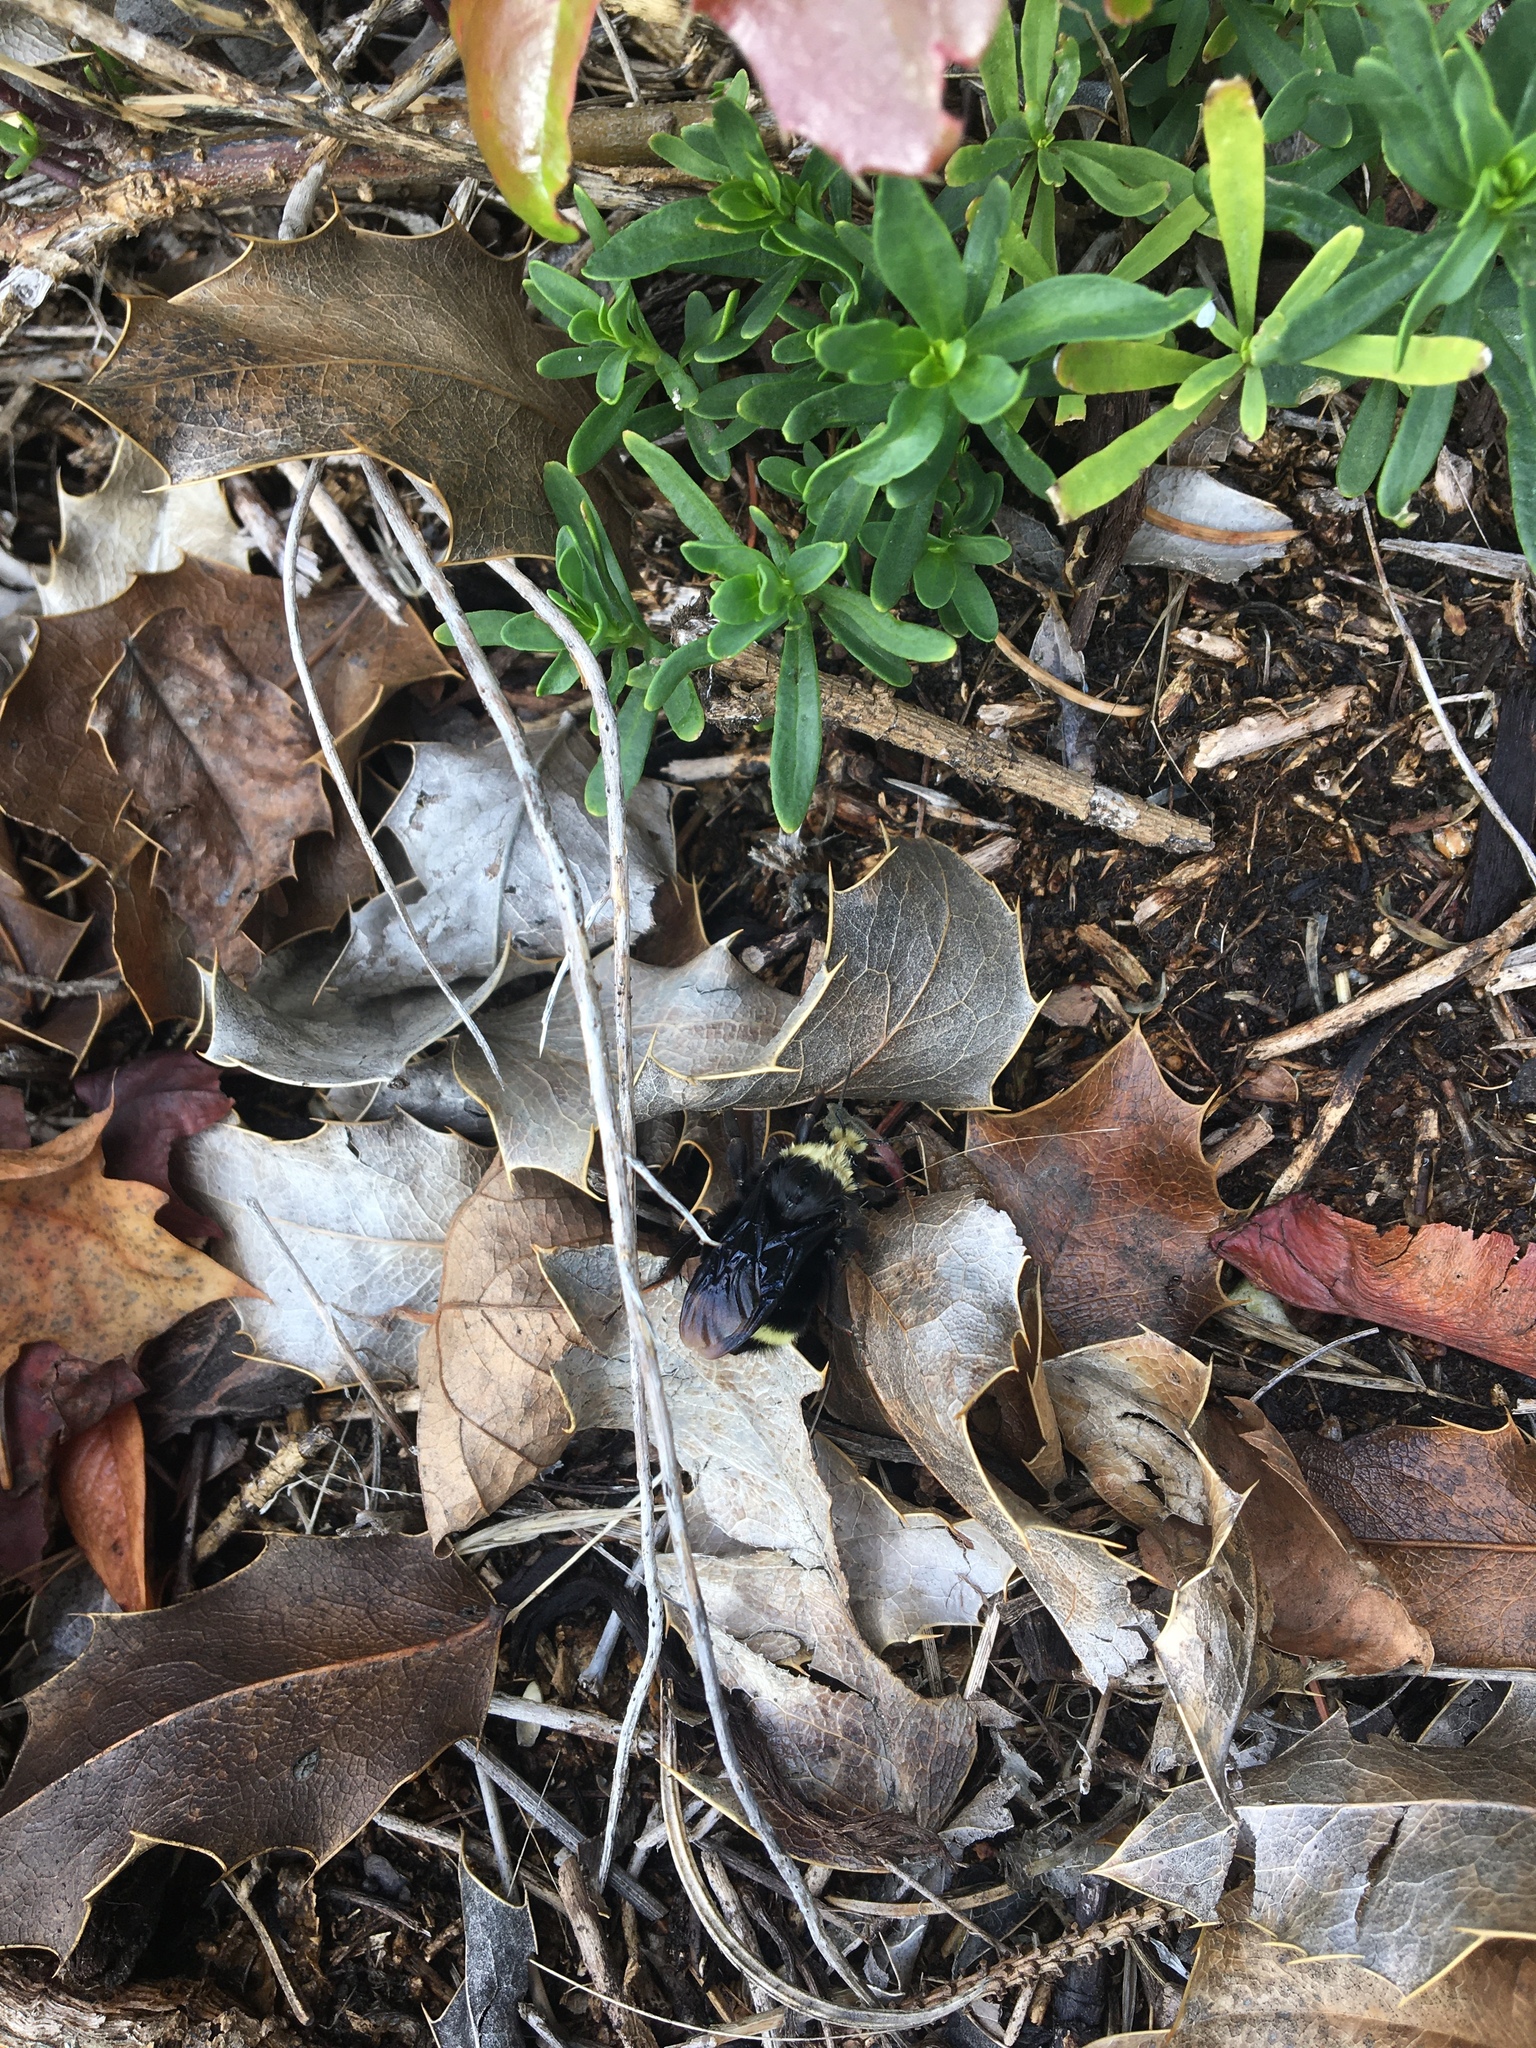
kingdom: Animalia
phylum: Arthropoda
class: Insecta
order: Hymenoptera
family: Apidae
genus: Bombus
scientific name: Bombus vosnesenskii
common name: Vosnesensky bumble bee
